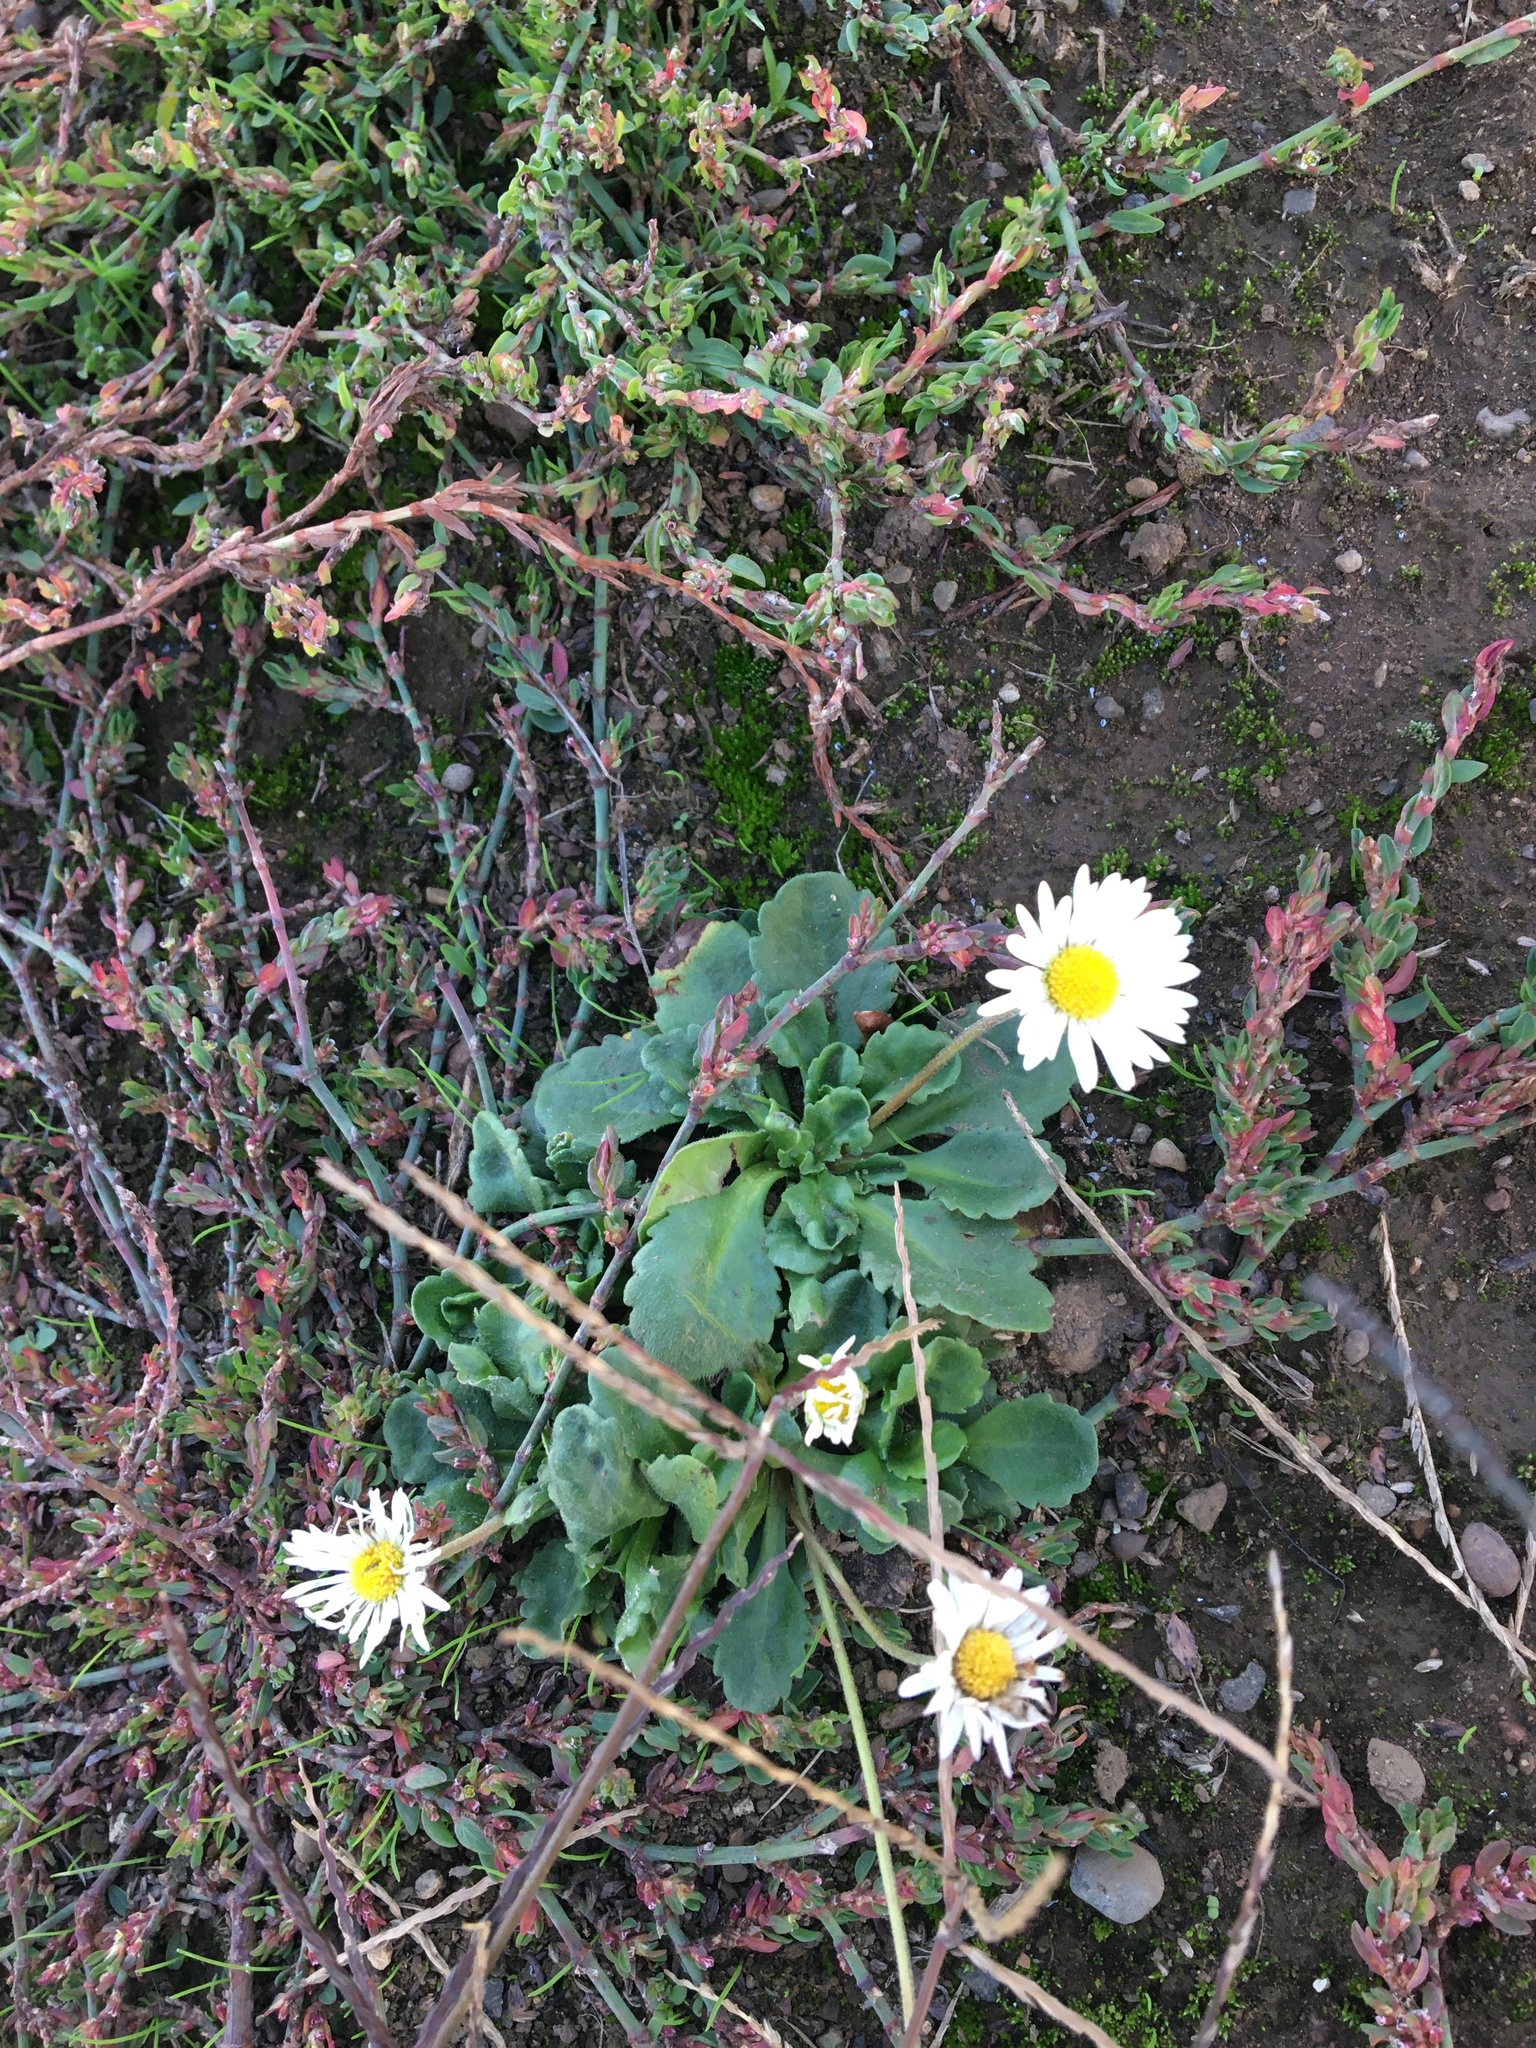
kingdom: Plantae
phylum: Tracheophyta
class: Magnoliopsida
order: Asterales
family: Asteraceae
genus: Bellis
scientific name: Bellis perennis
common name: Lawndaisy
